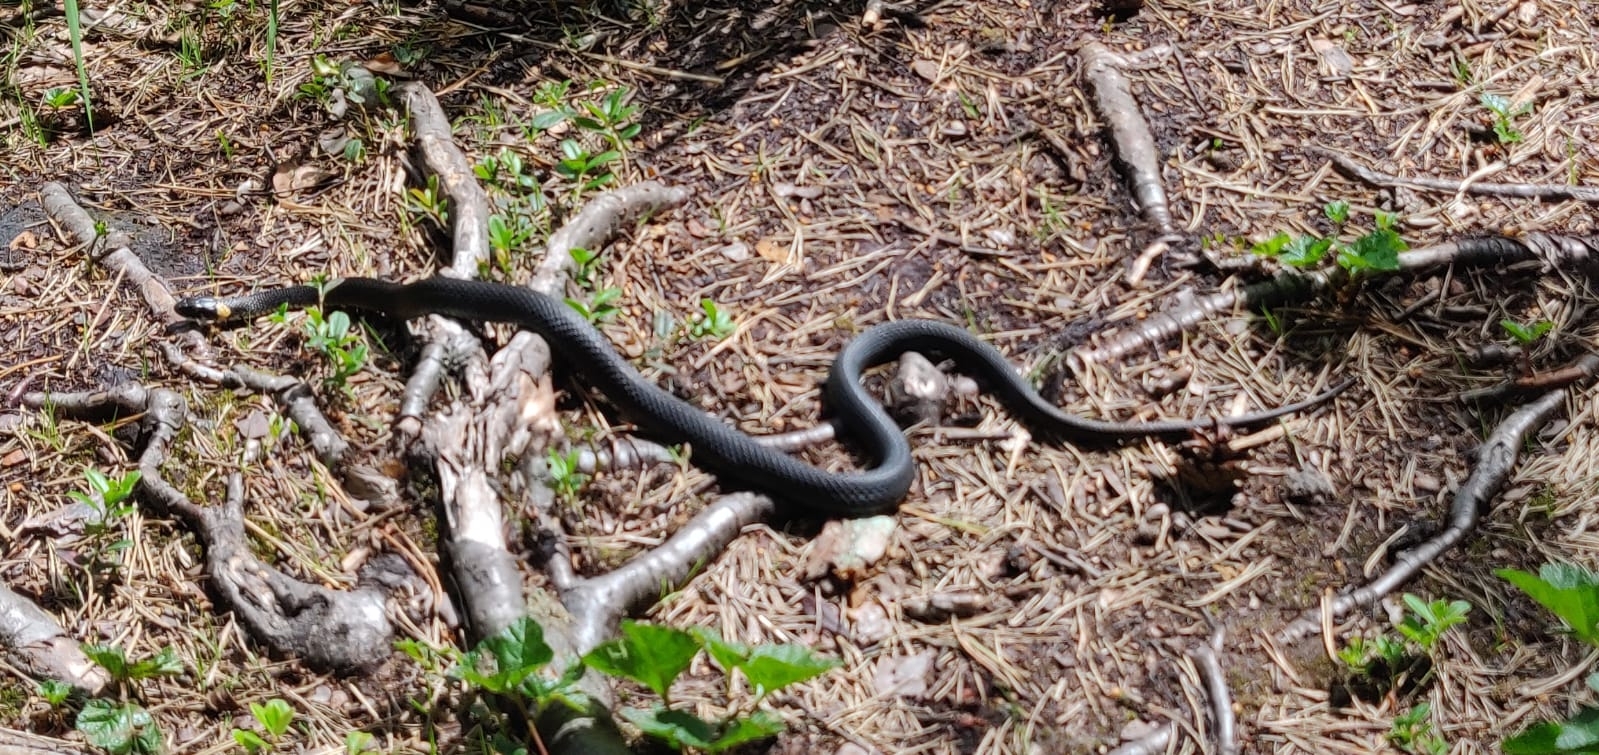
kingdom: Animalia
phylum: Chordata
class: Squamata
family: Colubridae
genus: Natrix
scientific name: Natrix natrix
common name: Grass snake
